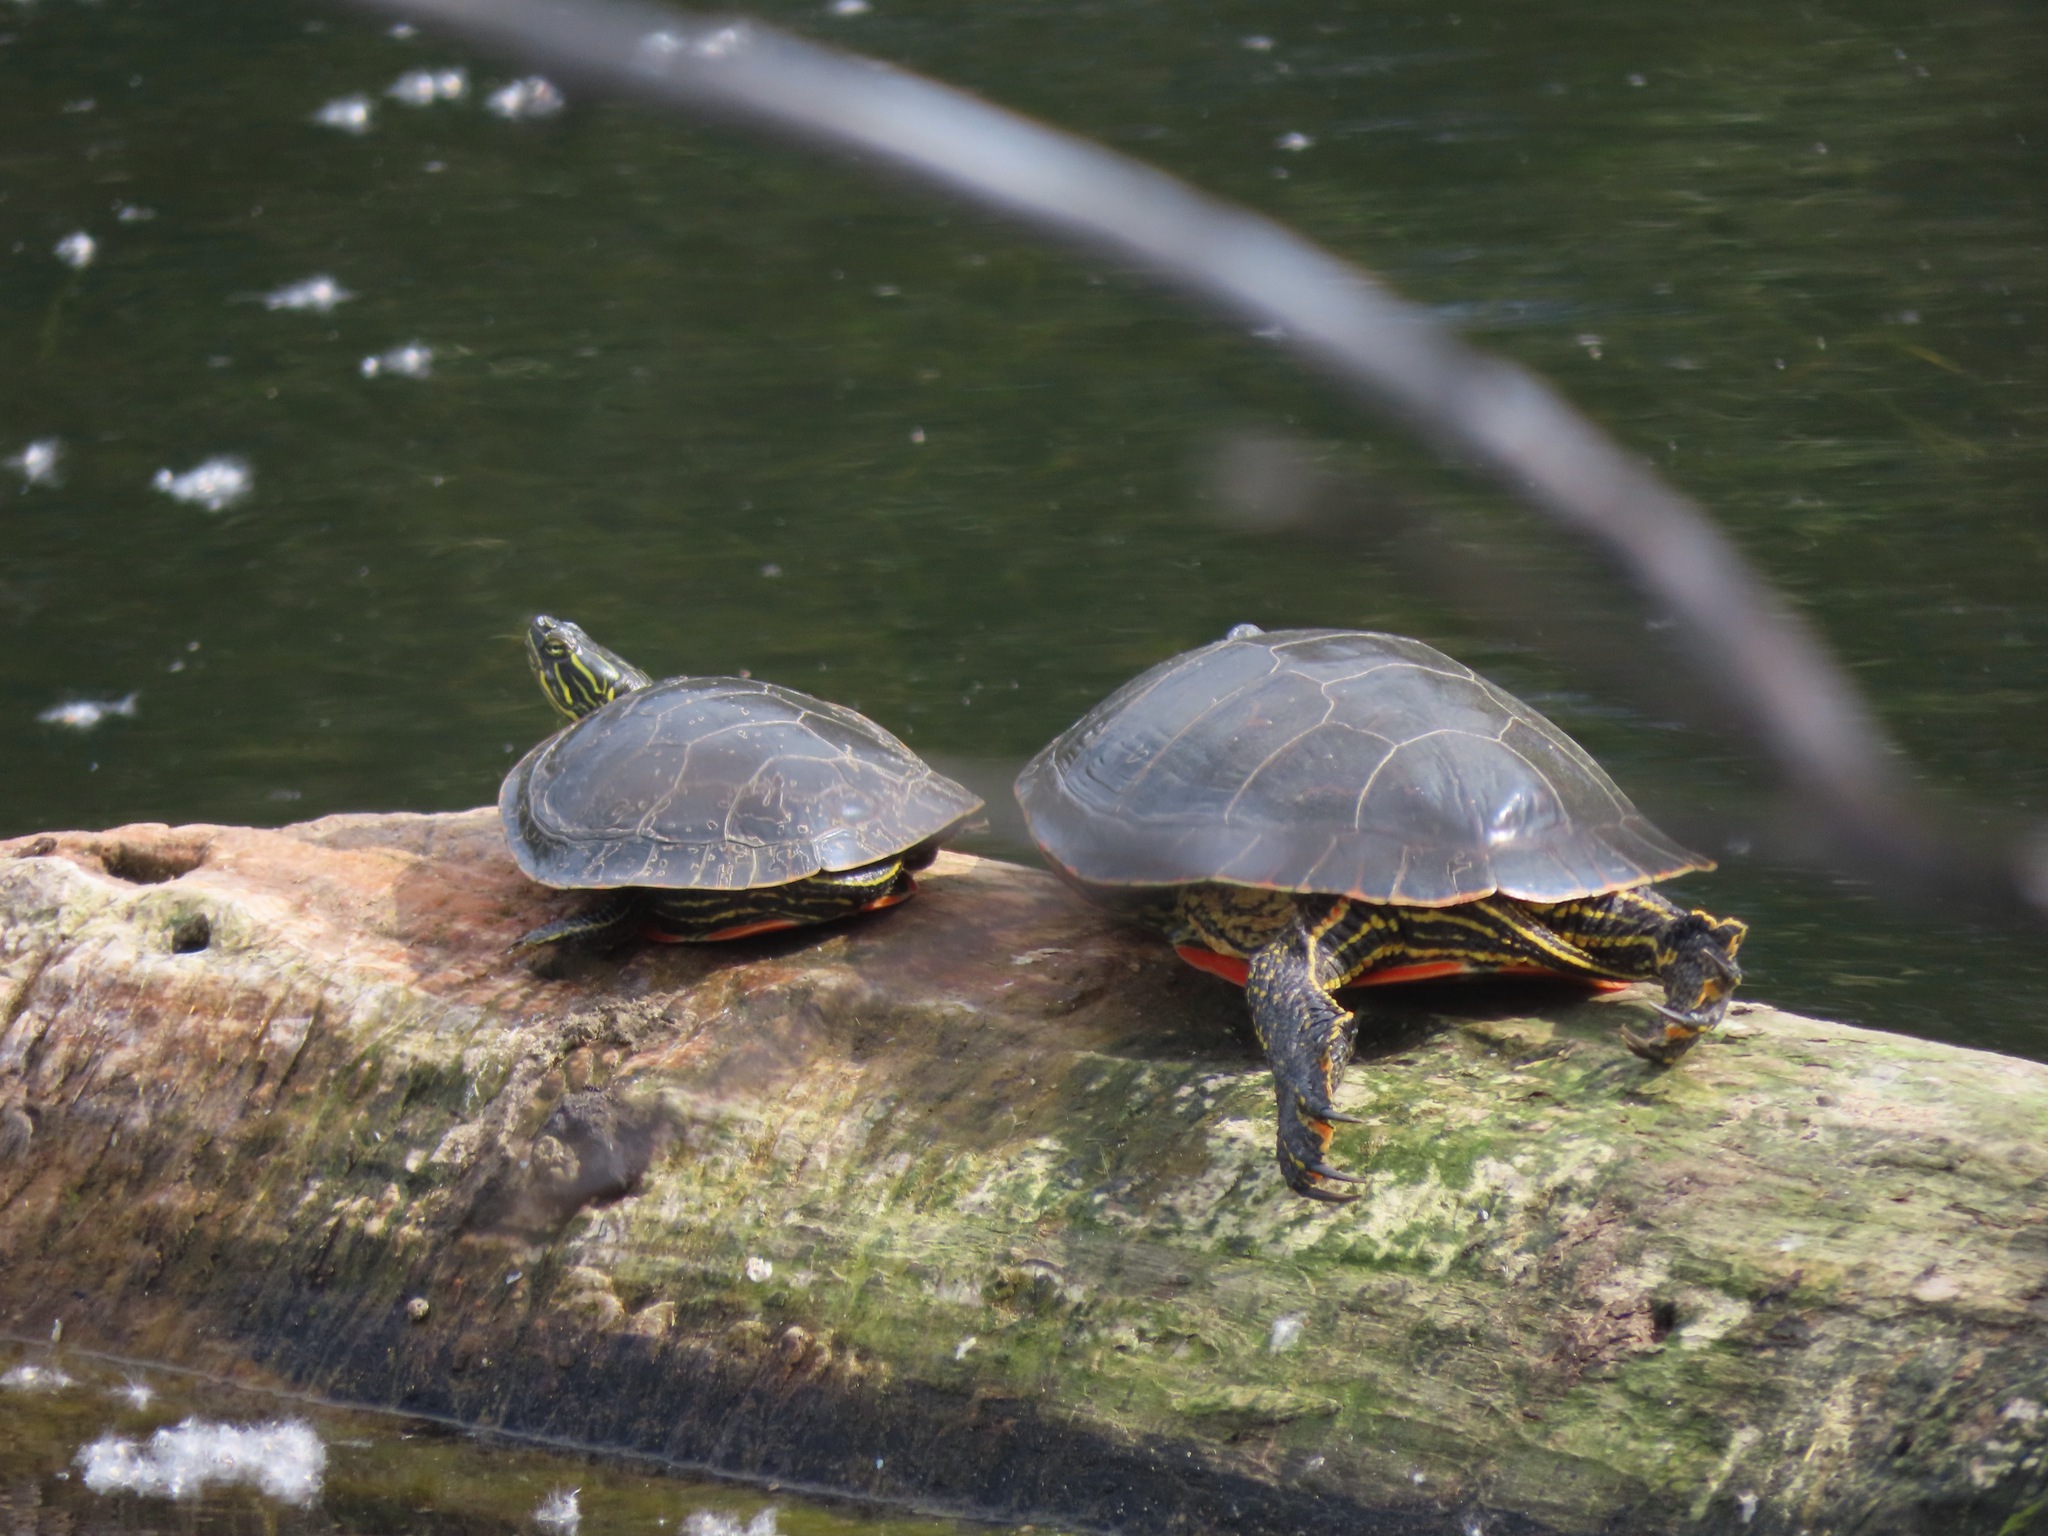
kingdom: Animalia
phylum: Chordata
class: Testudines
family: Emydidae
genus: Chrysemys
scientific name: Chrysemys picta
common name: Painted turtle
